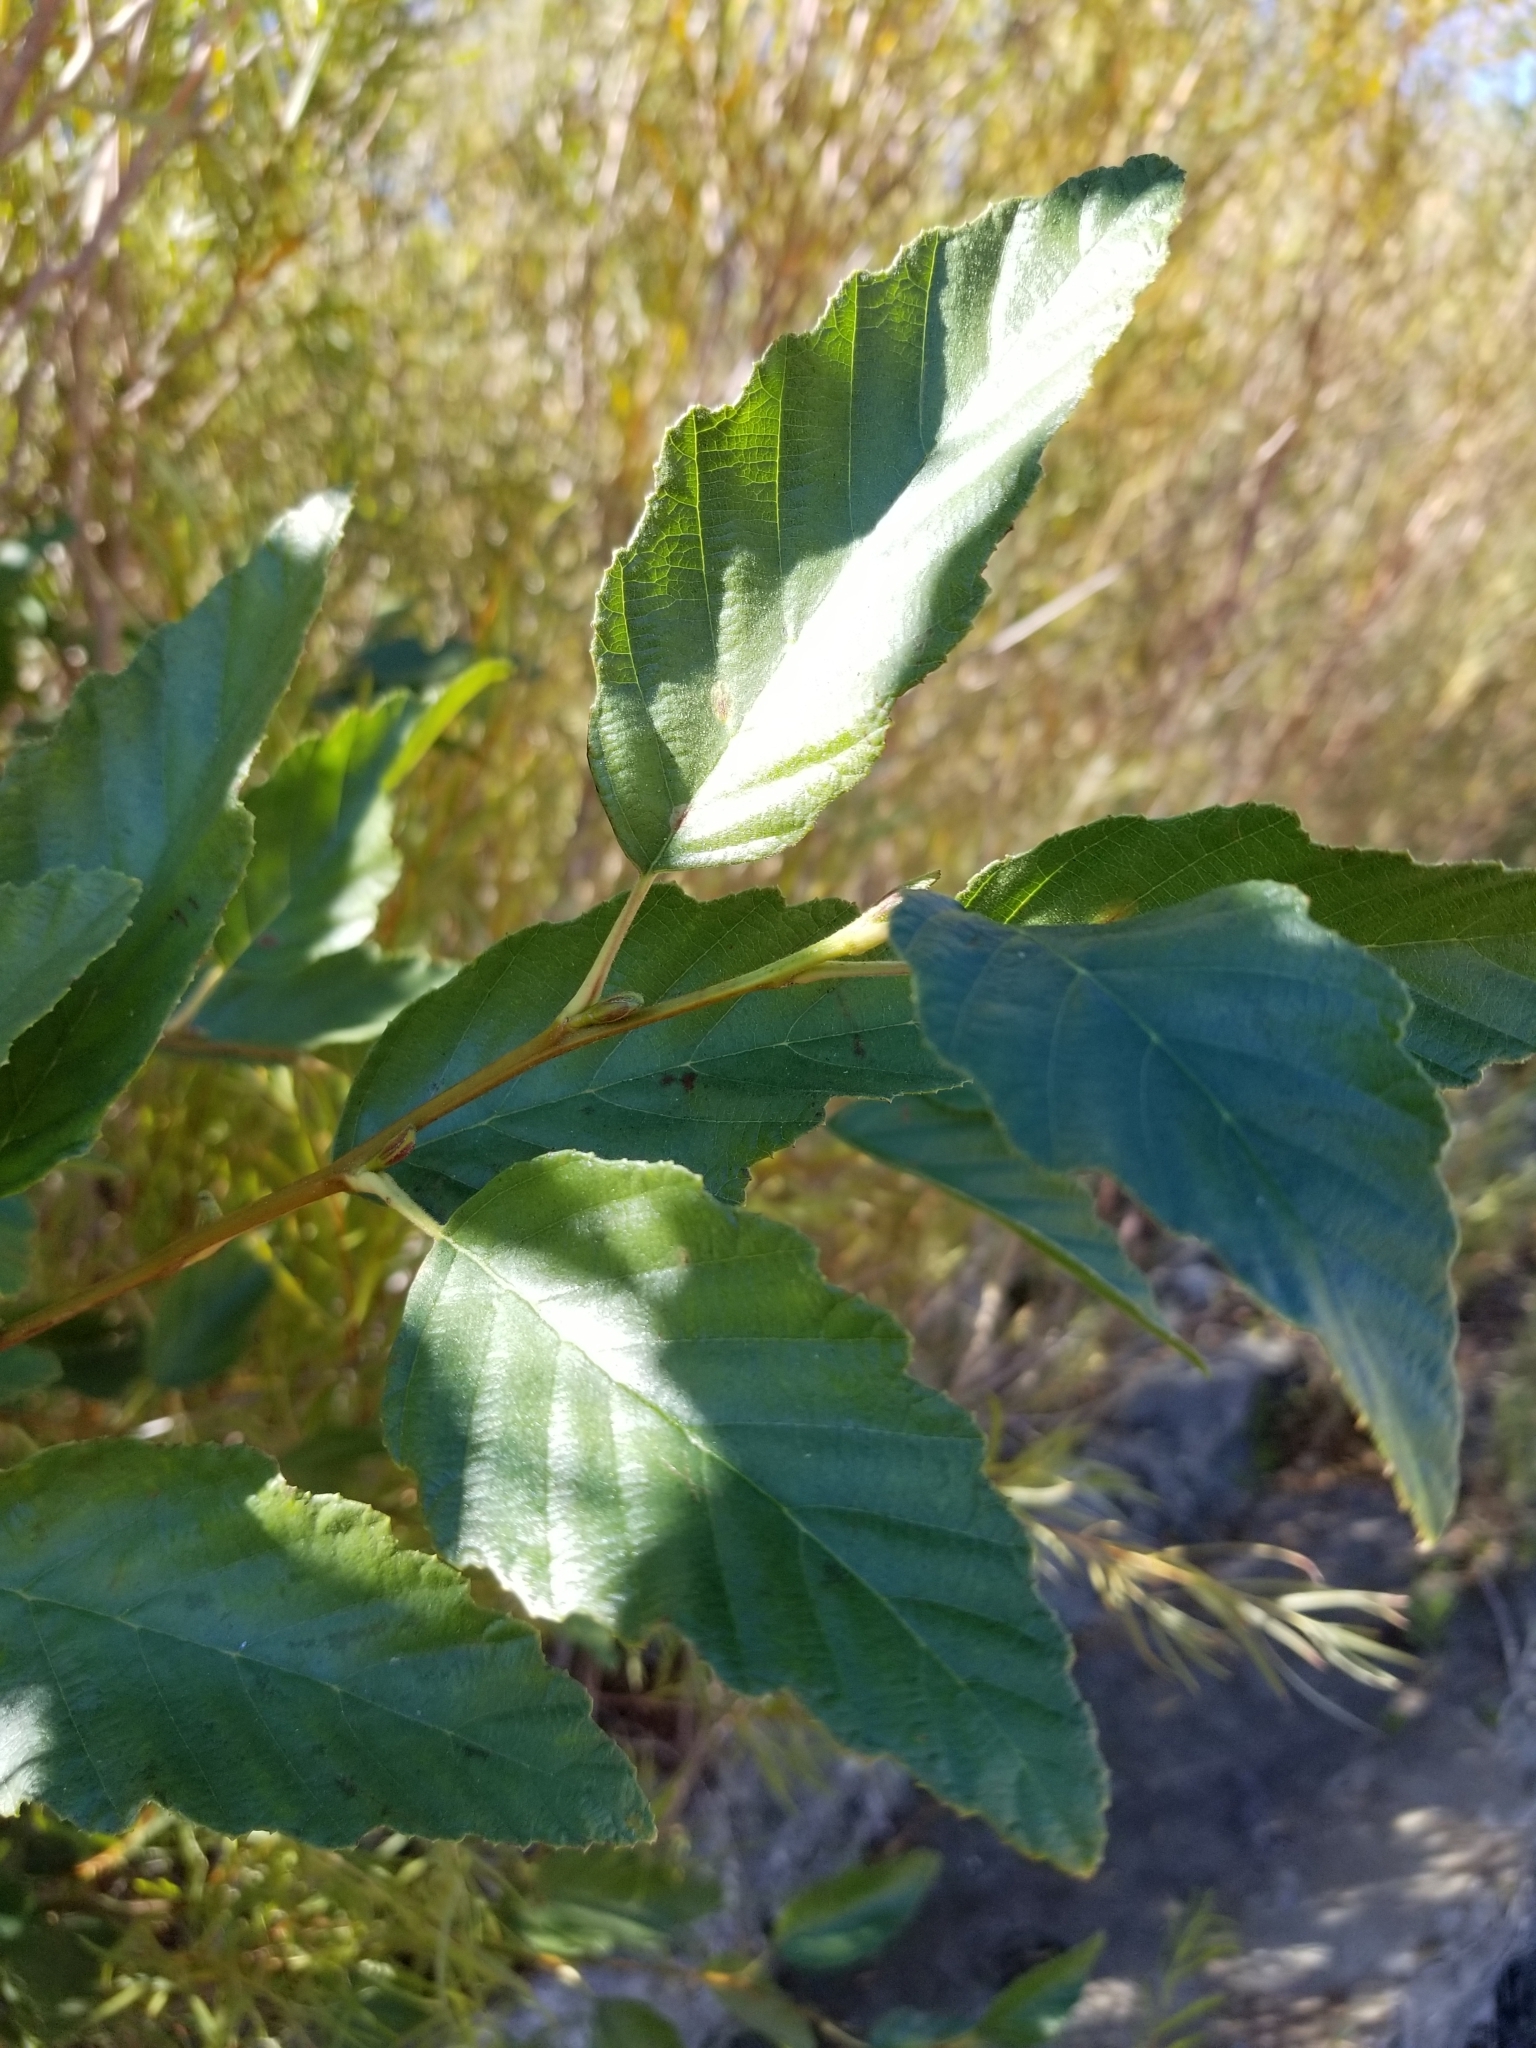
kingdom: Plantae
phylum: Tracheophyta
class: Magnoliopsida
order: Fagales
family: Betulaceae
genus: Alnus
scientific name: Alnus rhombifolia
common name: California alder
